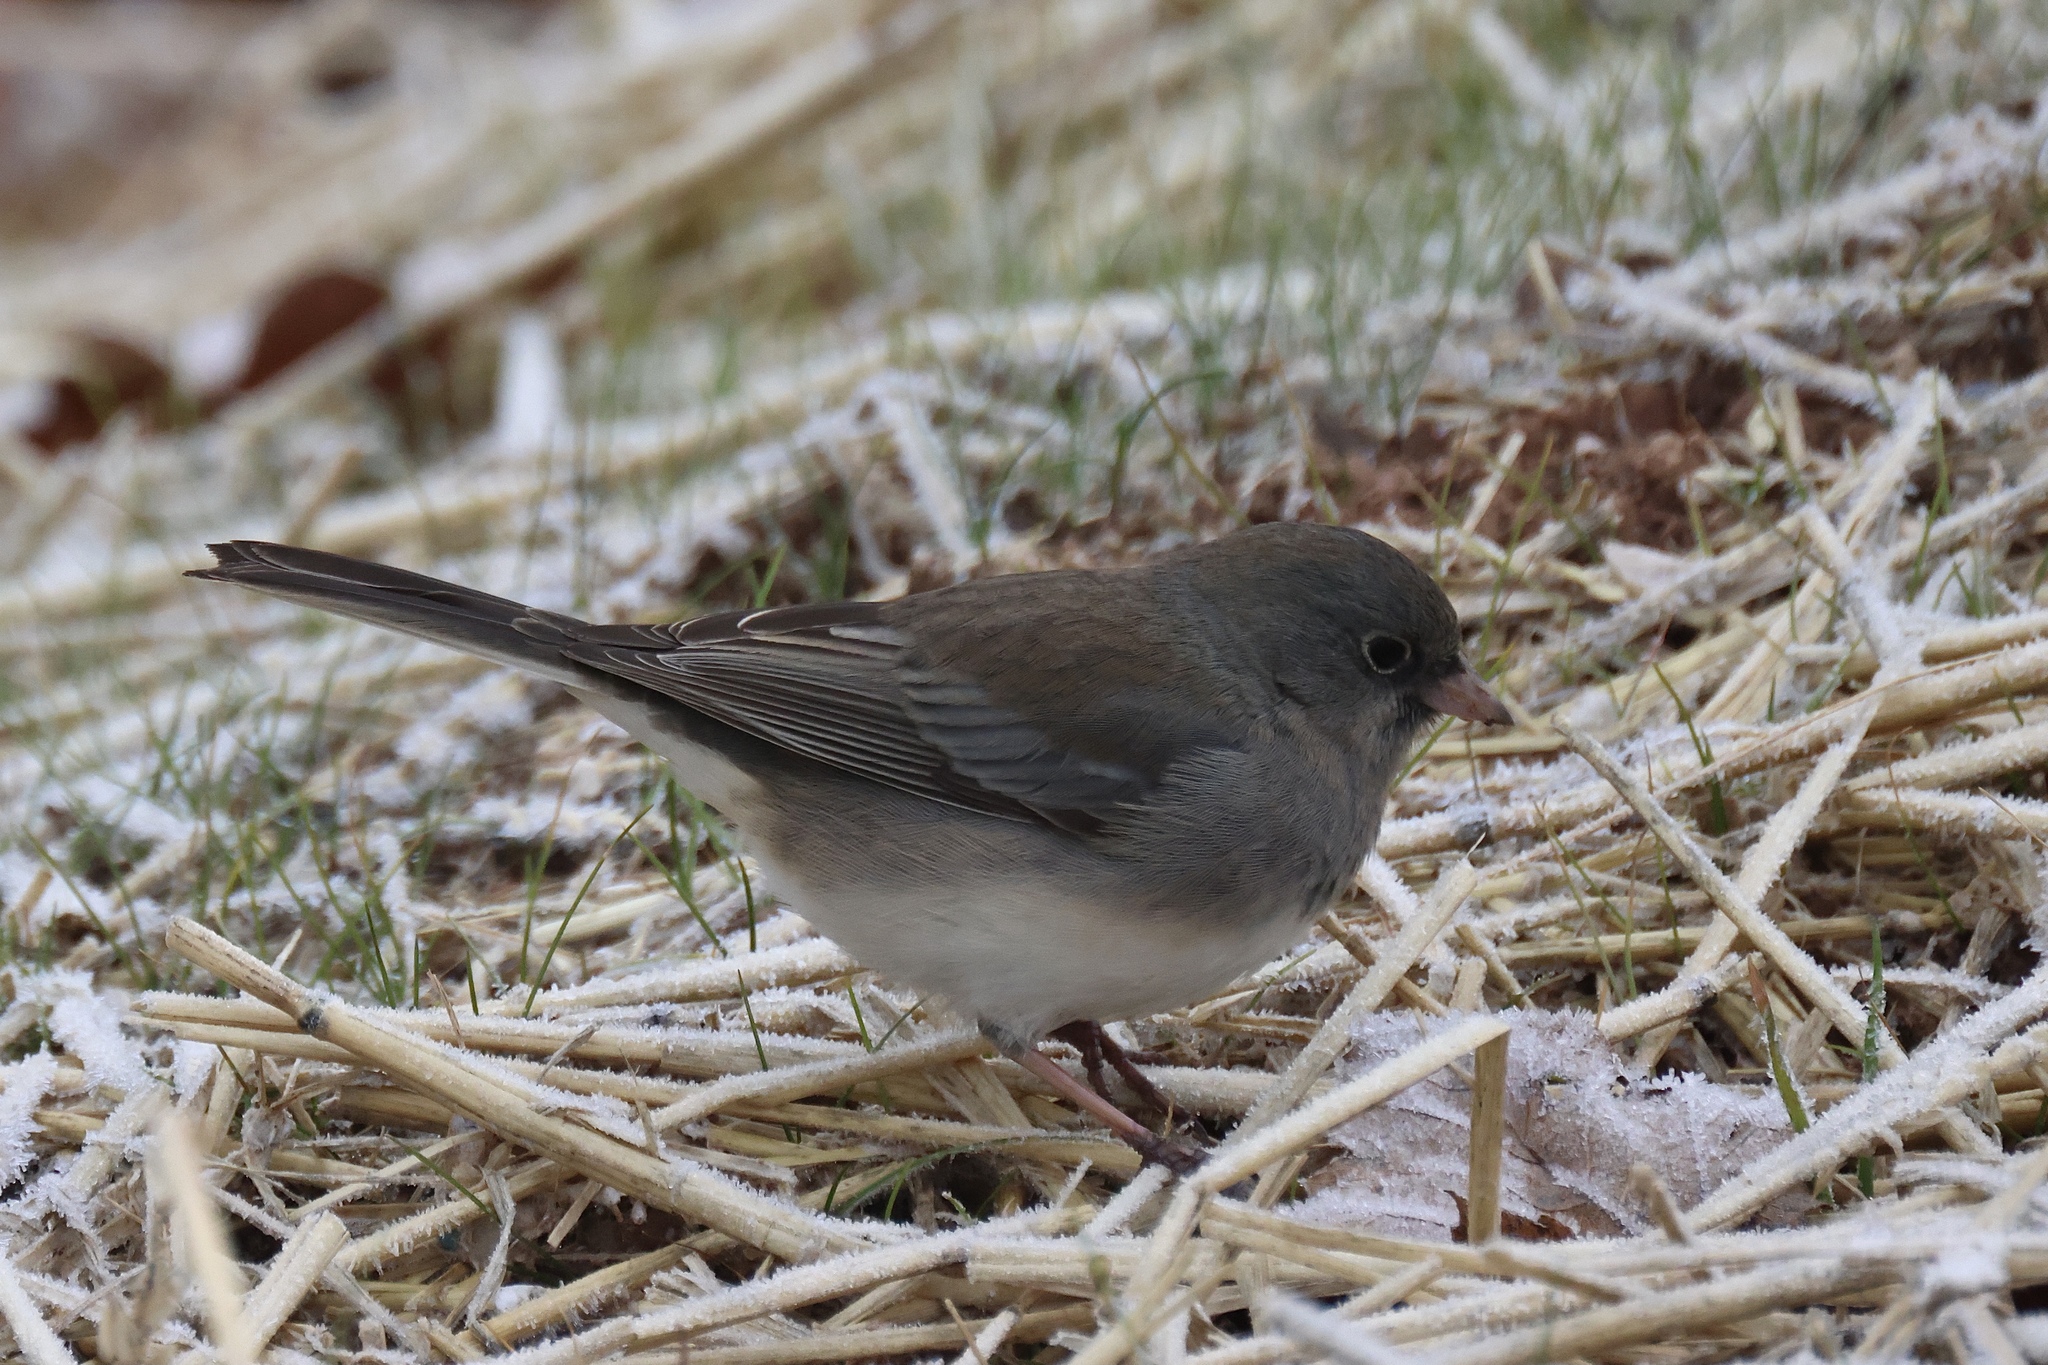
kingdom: Animalia
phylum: Chordata
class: Aves
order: Passeriformes
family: Passerellidae
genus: Junco
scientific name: Junco hyemalis
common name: Dark-eyed junco
